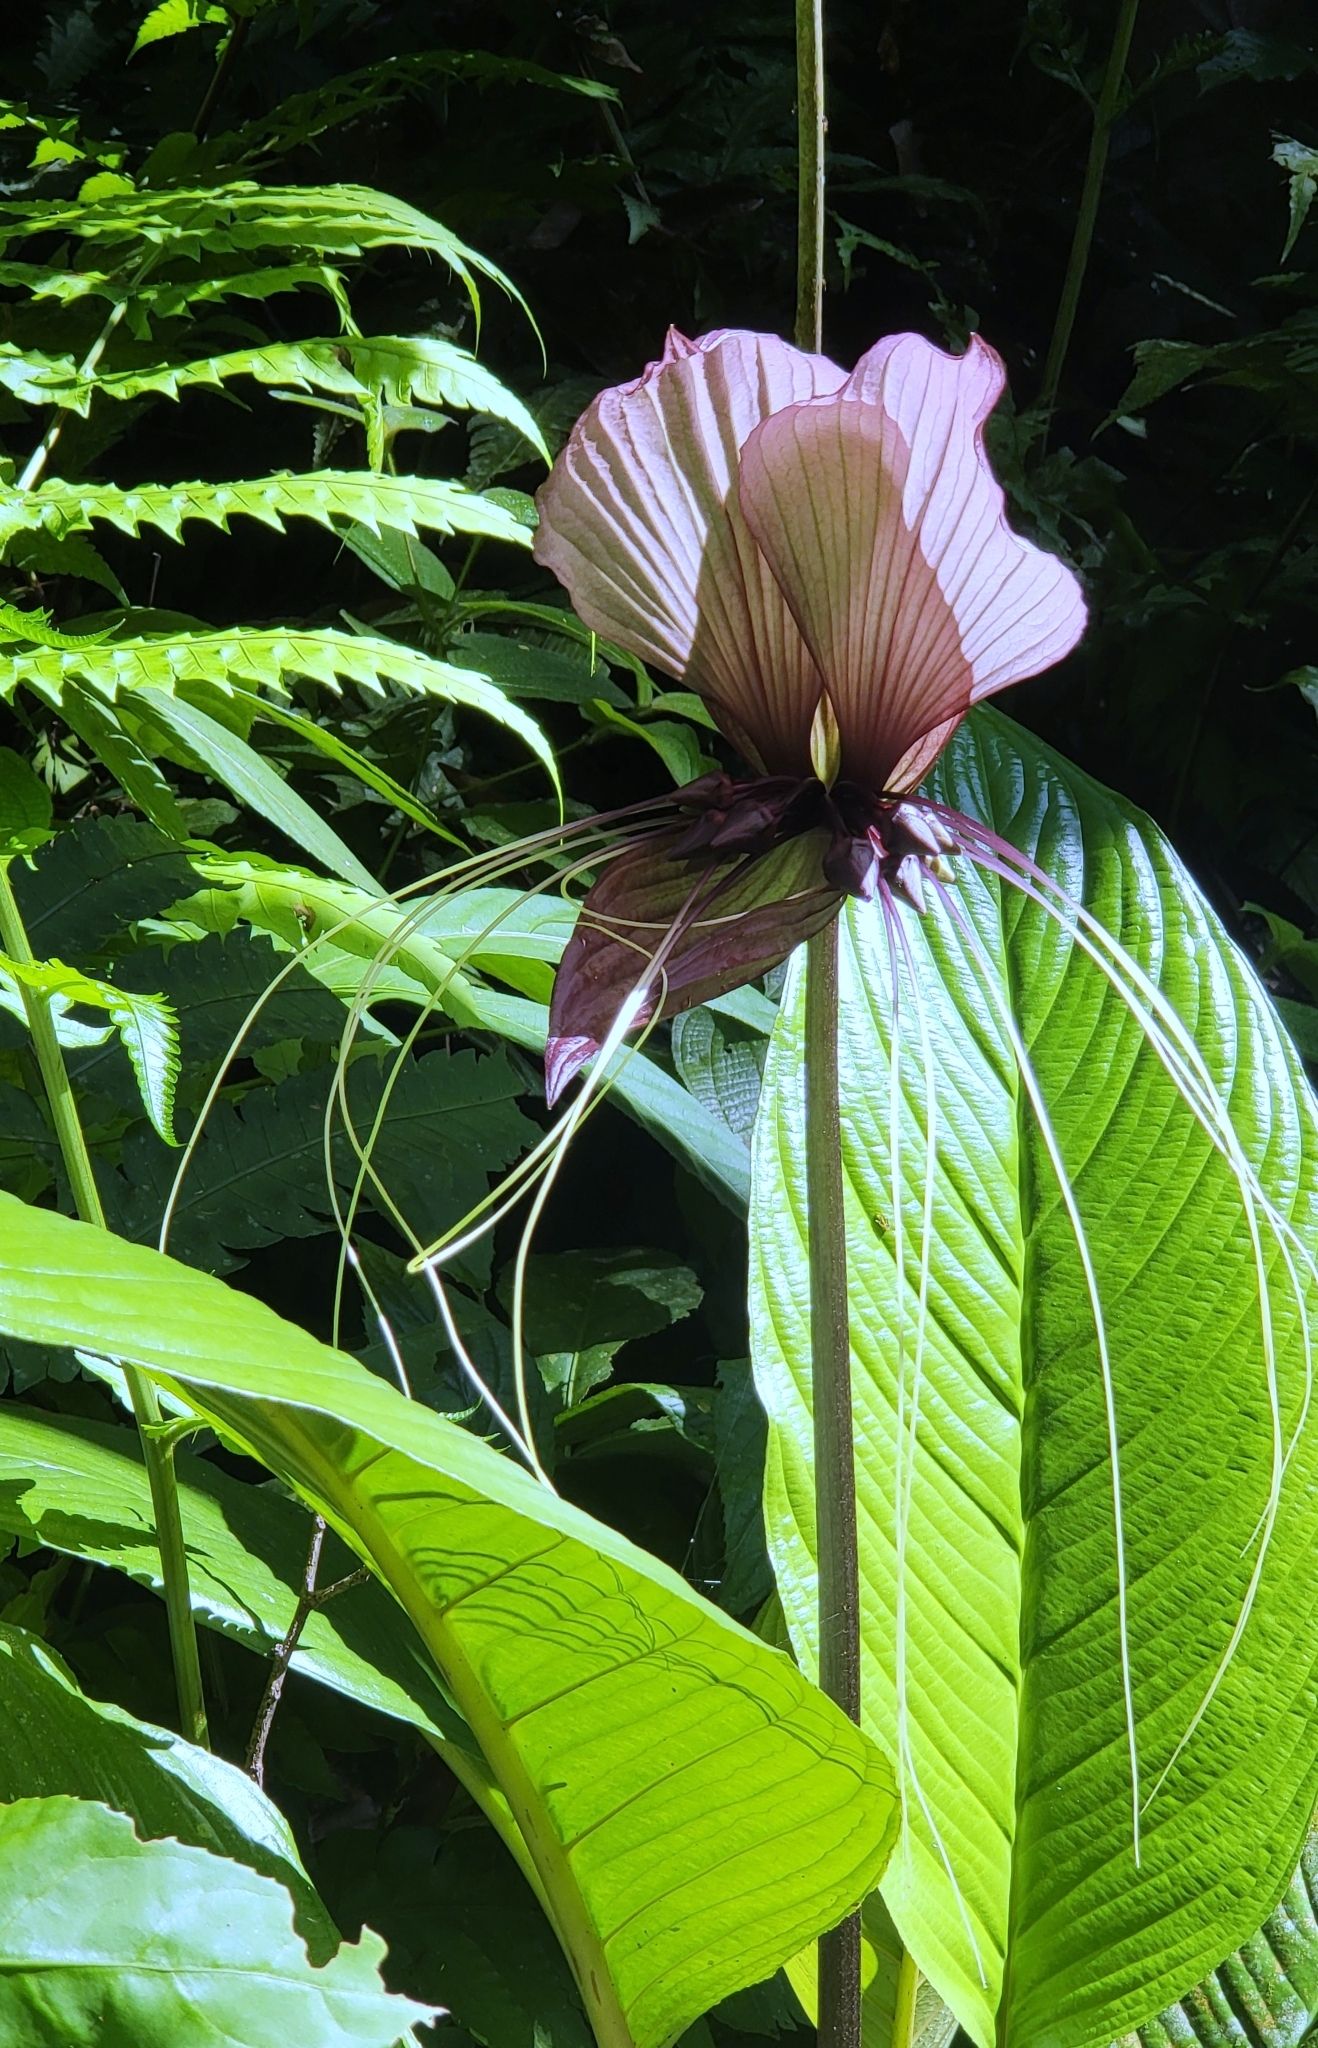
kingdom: Plantae
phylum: Tracheophyta
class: Liliopsida
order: Dioscoreales
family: Dioscoreaceae
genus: Tacca
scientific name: Tacca integrifolia
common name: Batplant
